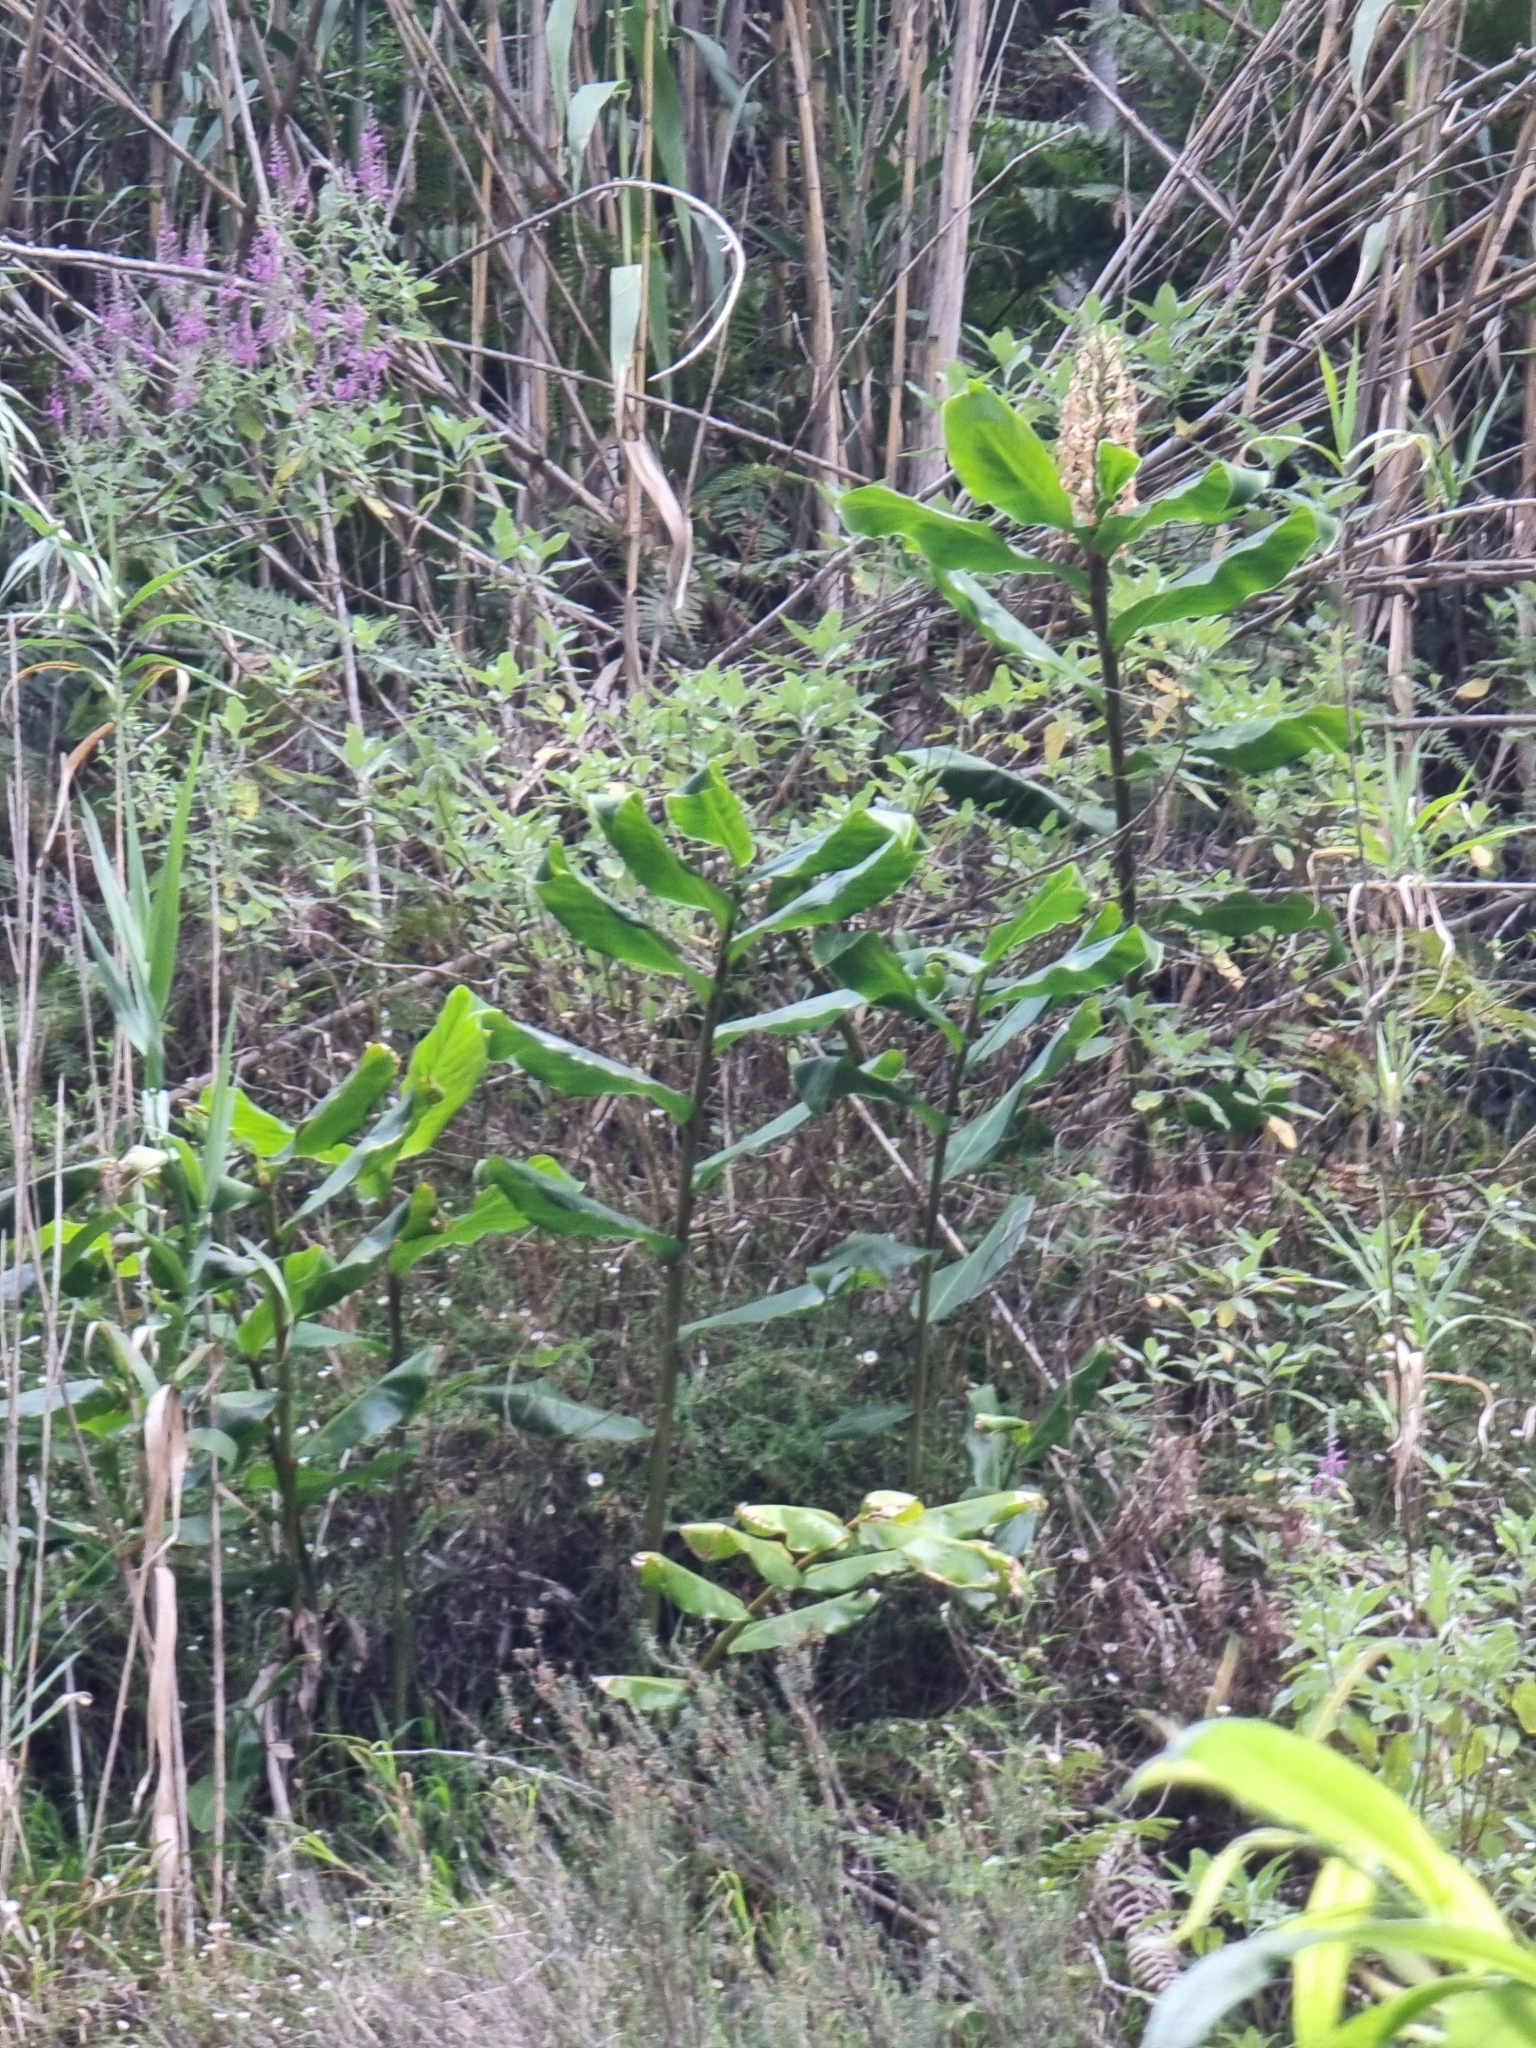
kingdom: Plantae
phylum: Tracheophyta
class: Liliopsida
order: Zingiberales
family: Zingiberaceae
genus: Hedychium
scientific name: Hedychium gardnerianum
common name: Himalayan ginger
